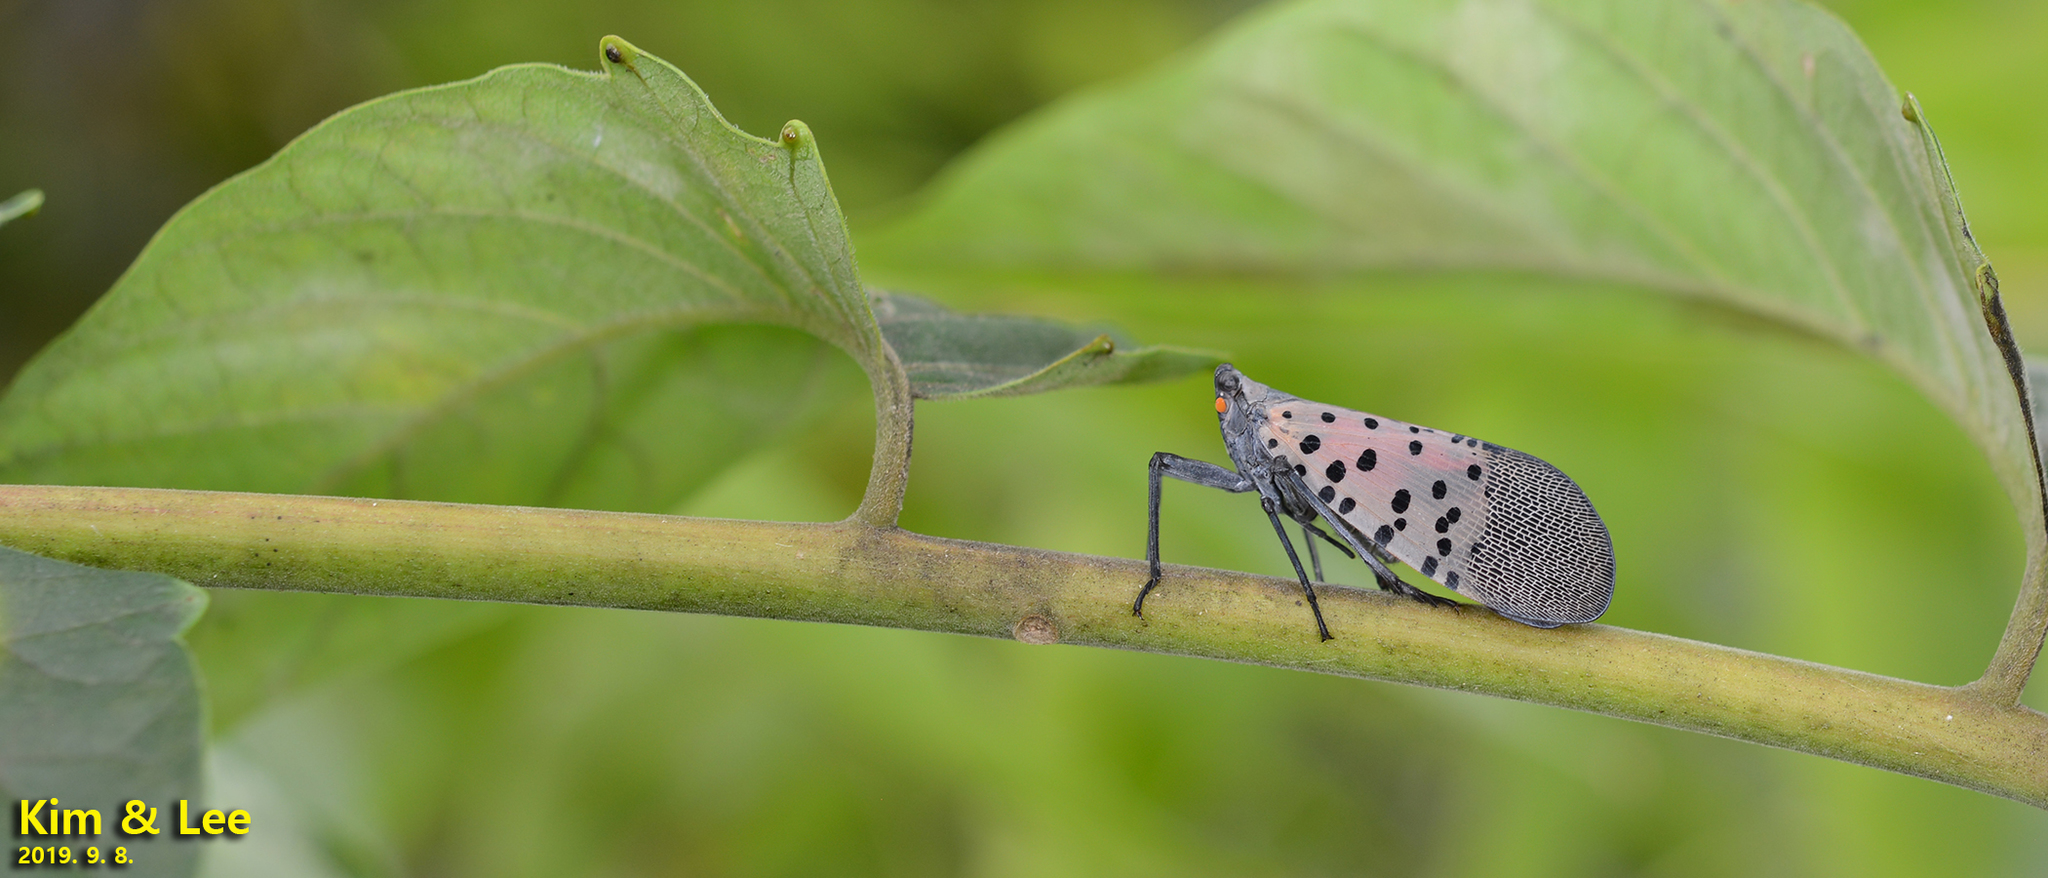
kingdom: Animalia
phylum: Arthropoda
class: Insecta
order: Hemiptera
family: Fulgoridae
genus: Lycorma
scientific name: Lycorma delicatula
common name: Spotted lanternfly
